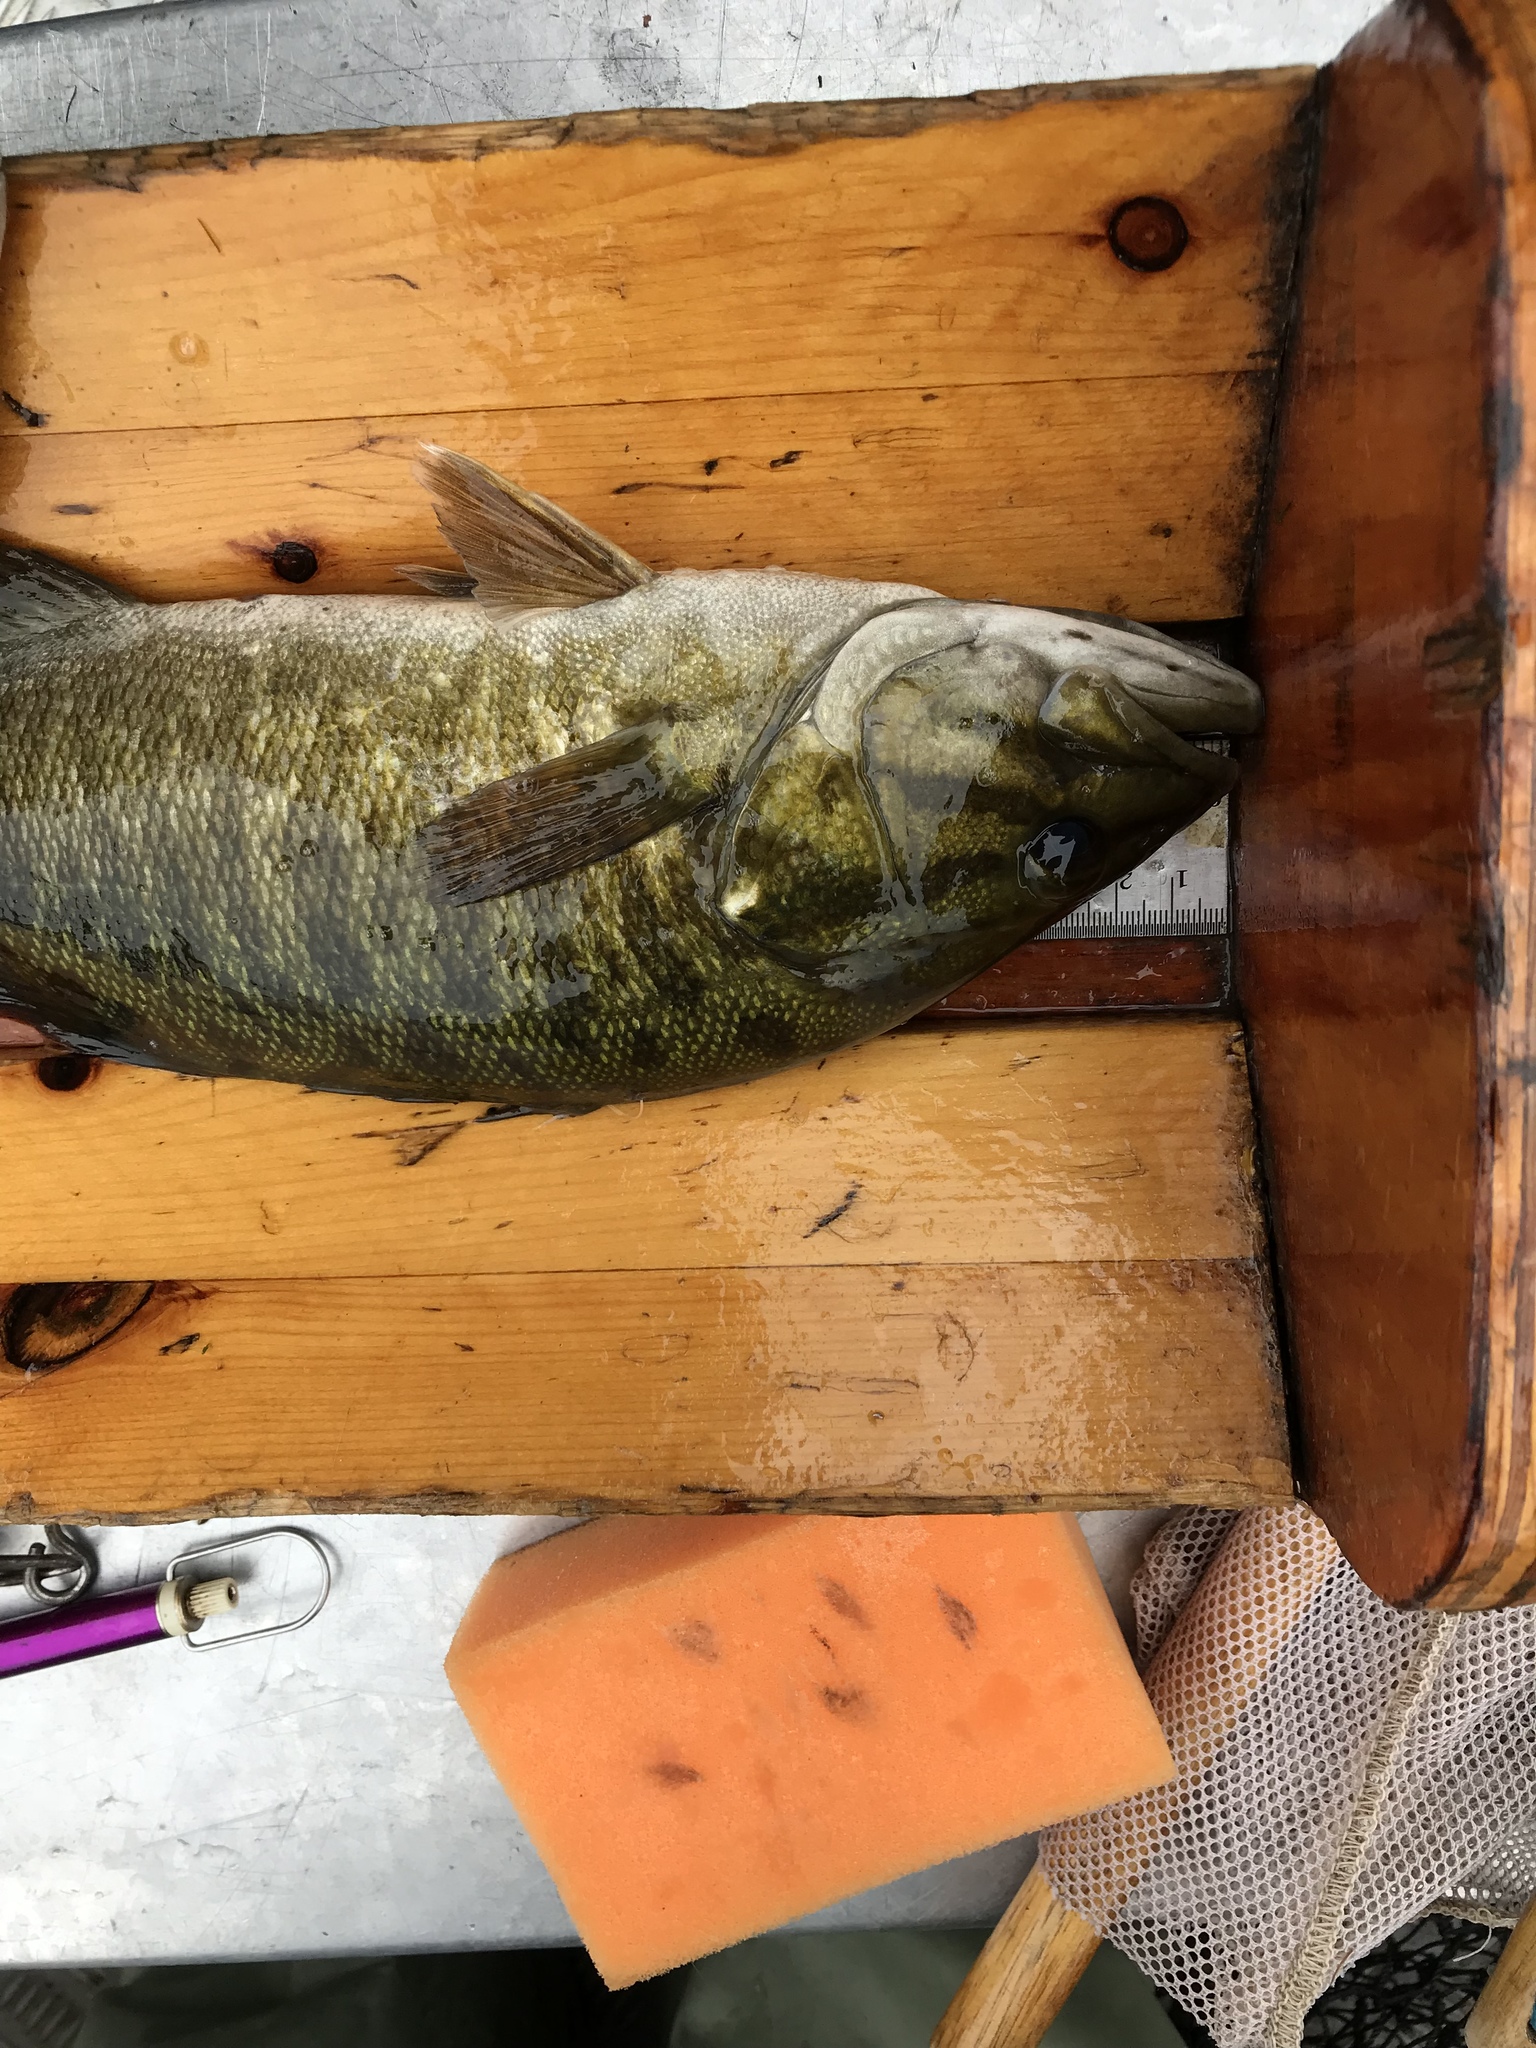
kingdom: Animalia
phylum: Chordata
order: Perciformes
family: Centrarchidae
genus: Micropterus
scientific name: Micropterus dolomieu
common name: Smallmouth bass
